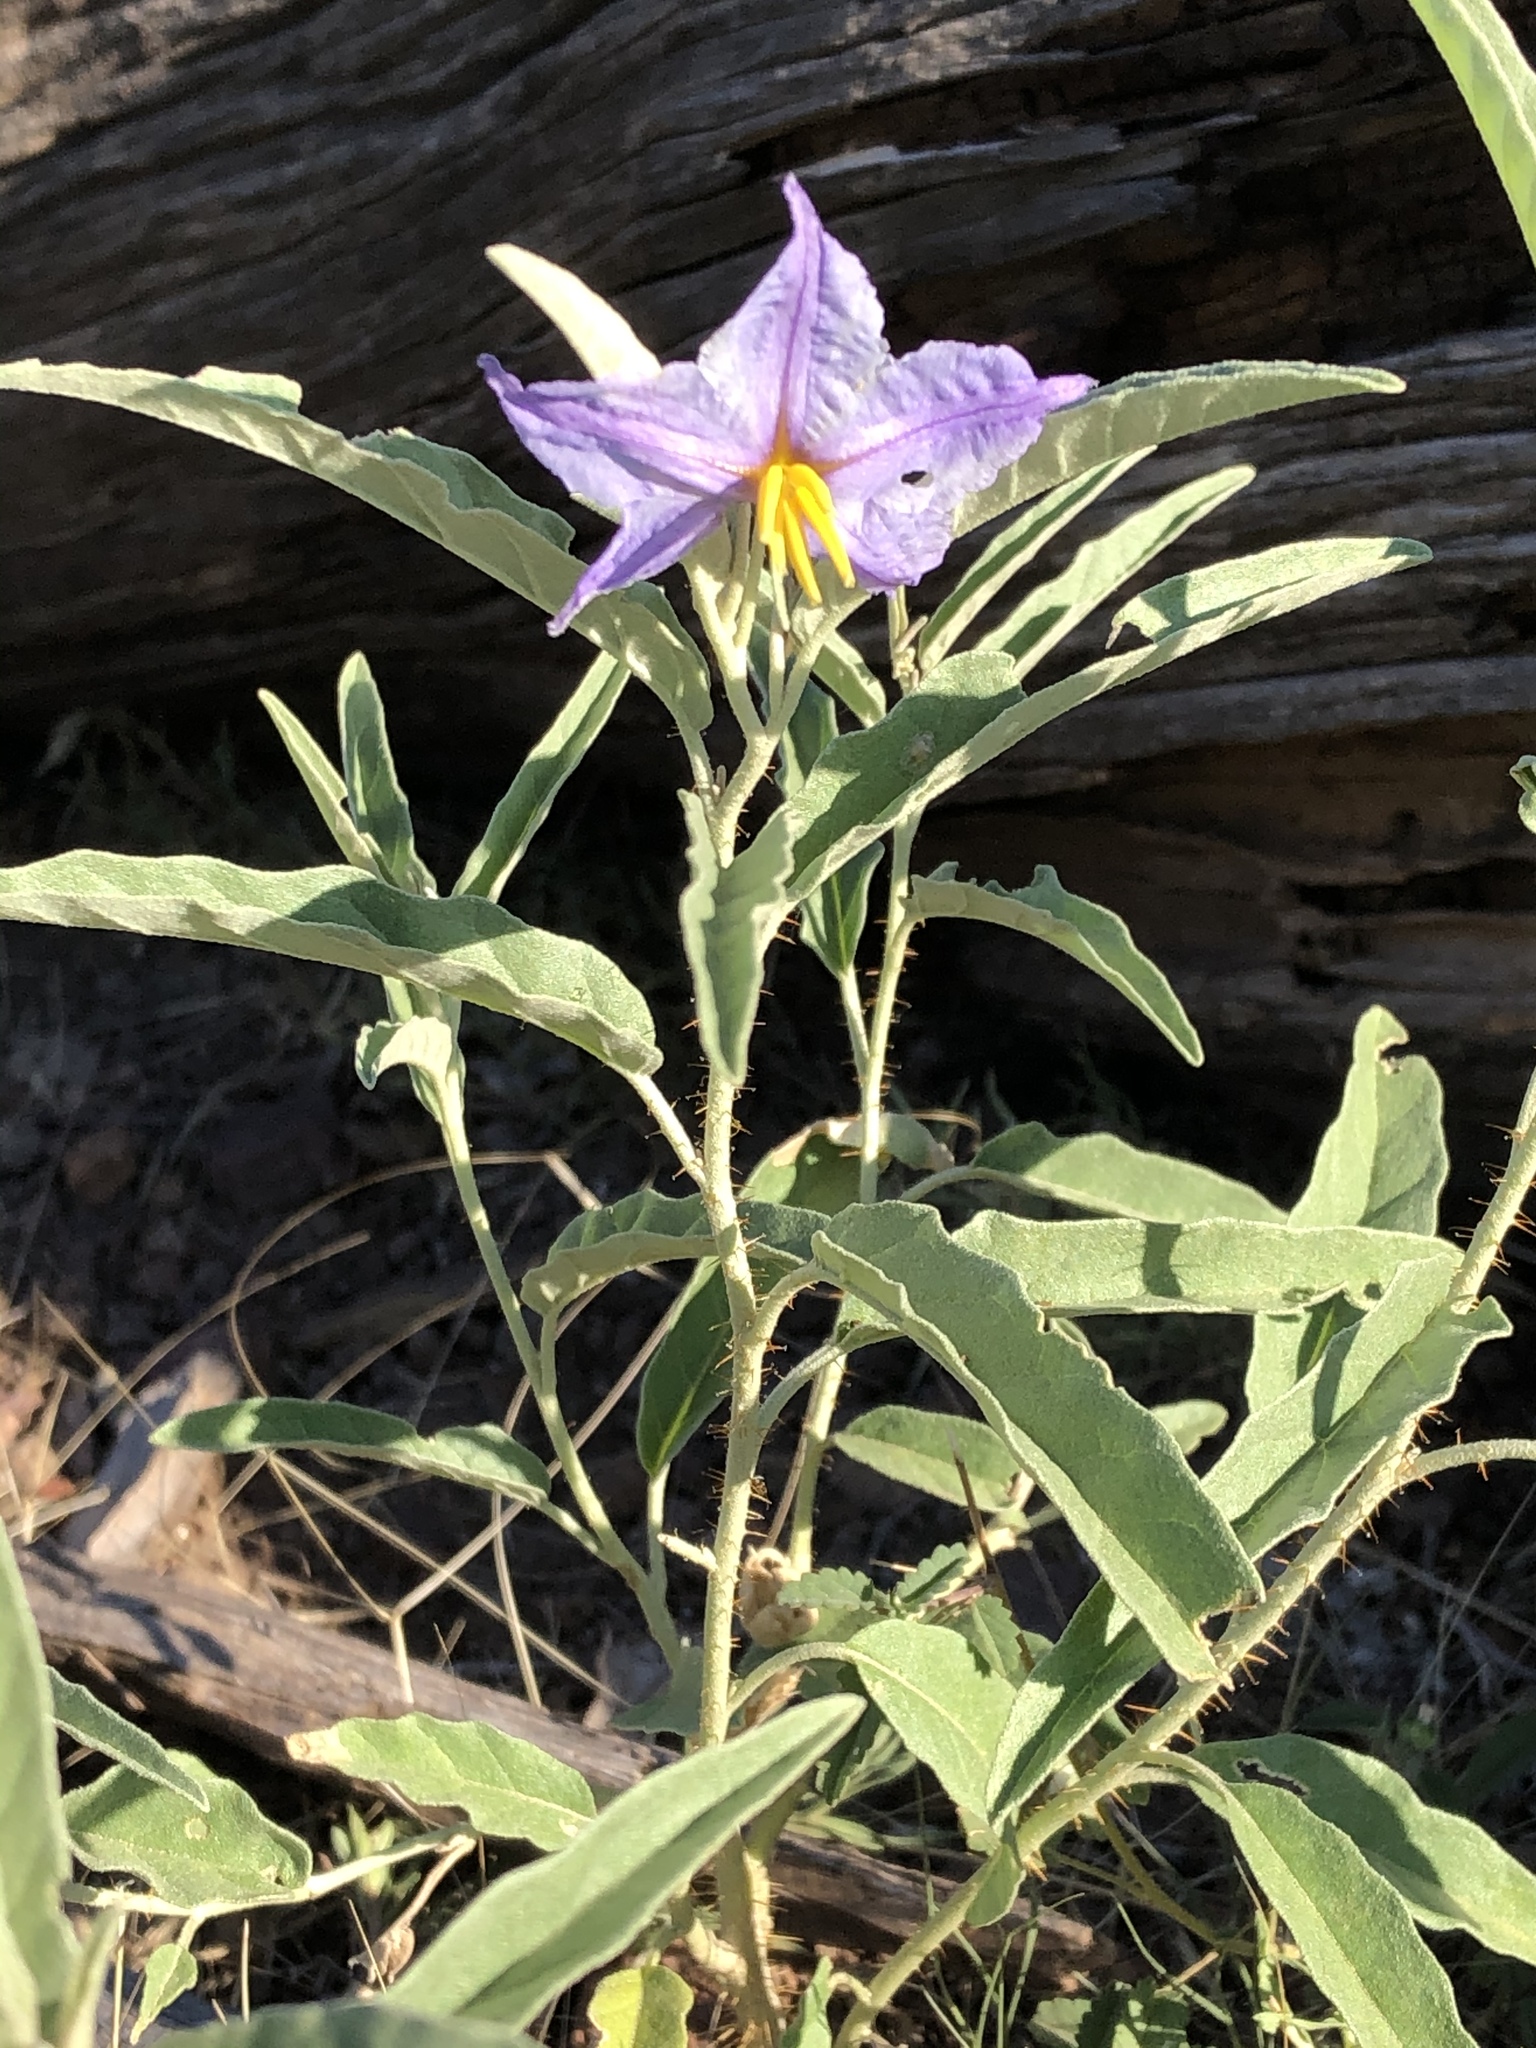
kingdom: Plantae
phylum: Tracheophyta
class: Magnoliopsida
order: Solanales
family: Solanaceae
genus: Solanum
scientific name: Solanum elaeagnifolium
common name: Silverleaf nightshade
